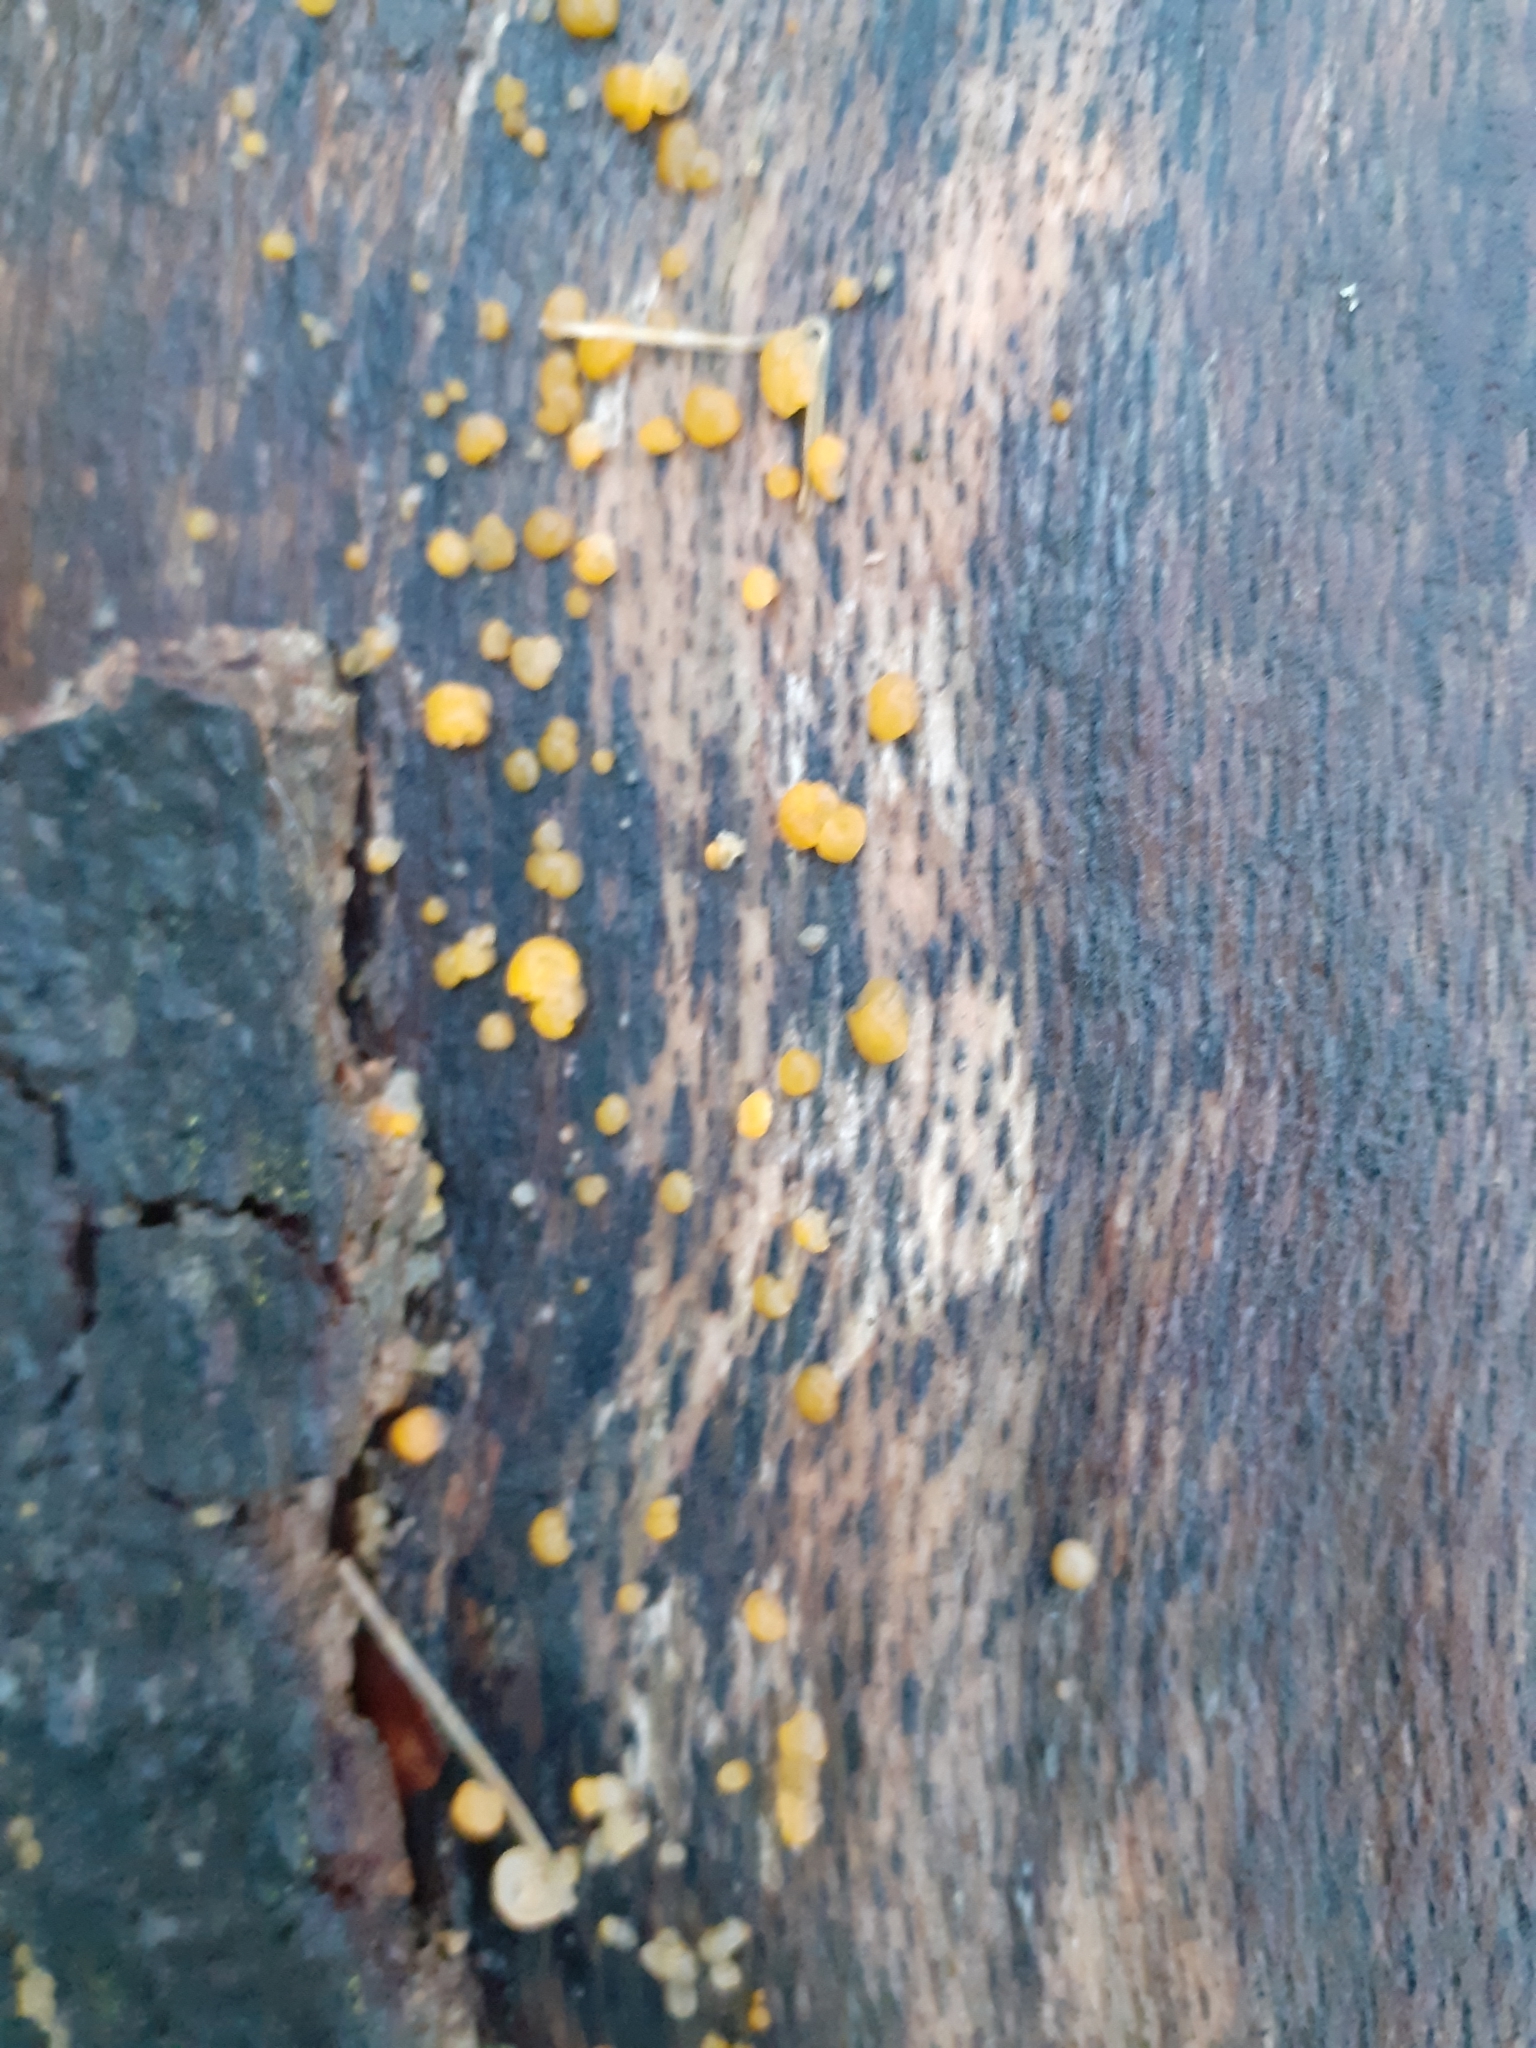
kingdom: Fungi
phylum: Basidiomycota
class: Dacrymycetes
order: Dacrymycetales
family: Dacrymycetaceae
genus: Dacrymyces
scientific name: Dacrymyces stillatus
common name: Common jelly spot
